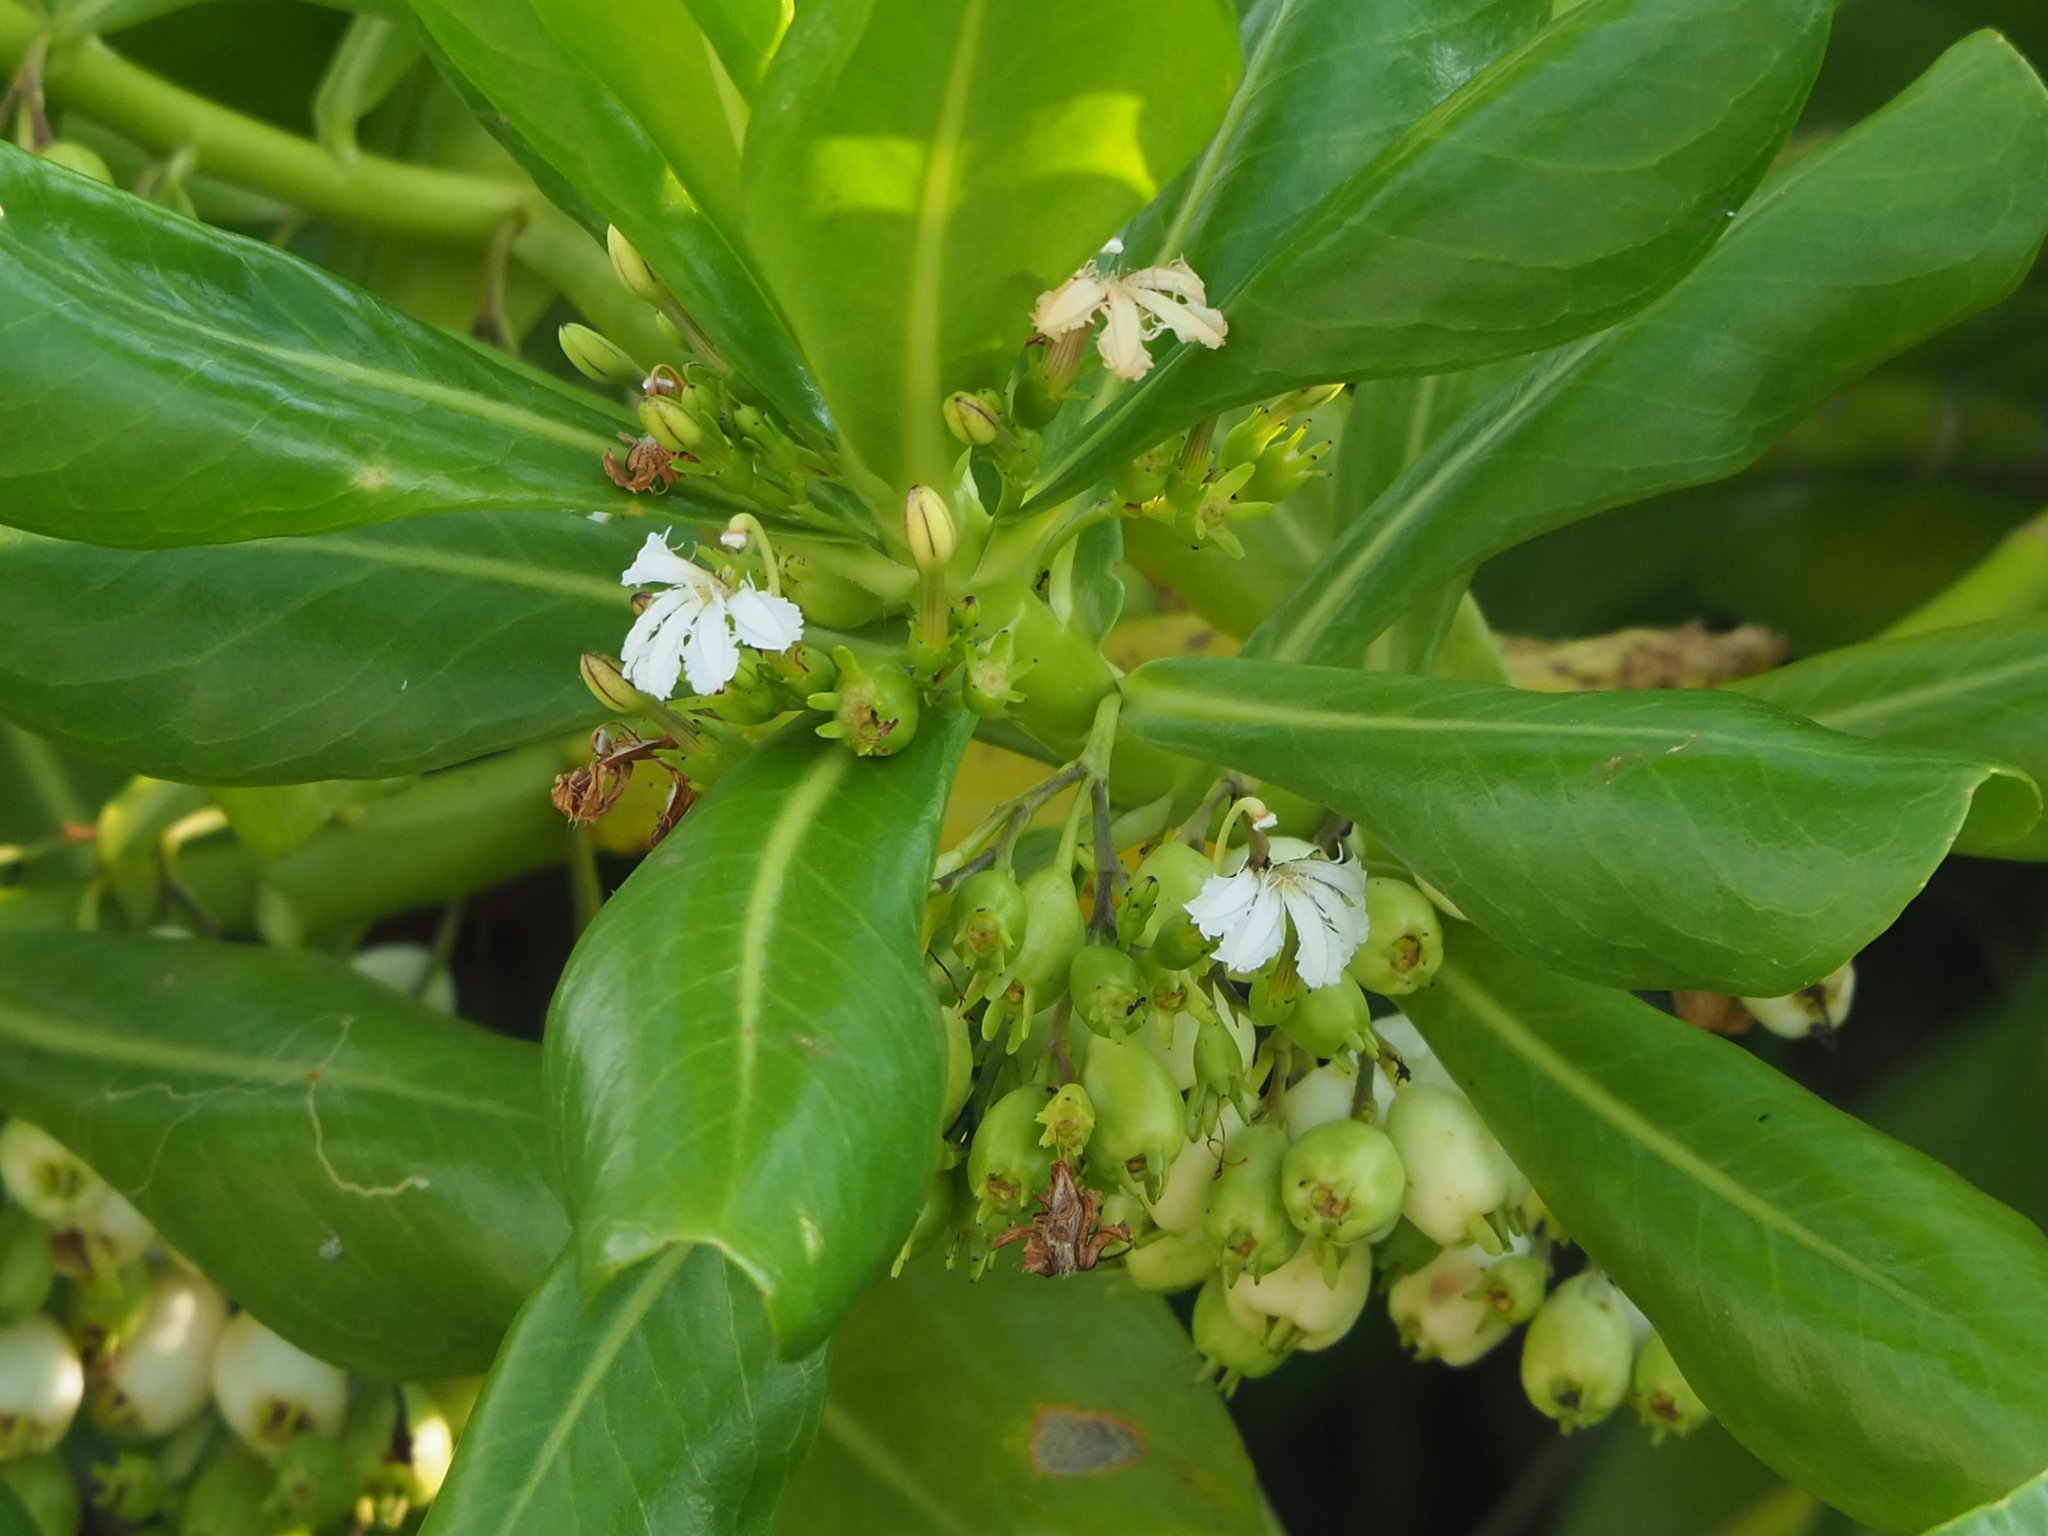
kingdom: Plantae
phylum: Tracheophyta
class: Magnoliopsida
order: Asterales
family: Goodeniaceae
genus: Scaevola
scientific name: Scaevola taccada
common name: Sea lettucetree
